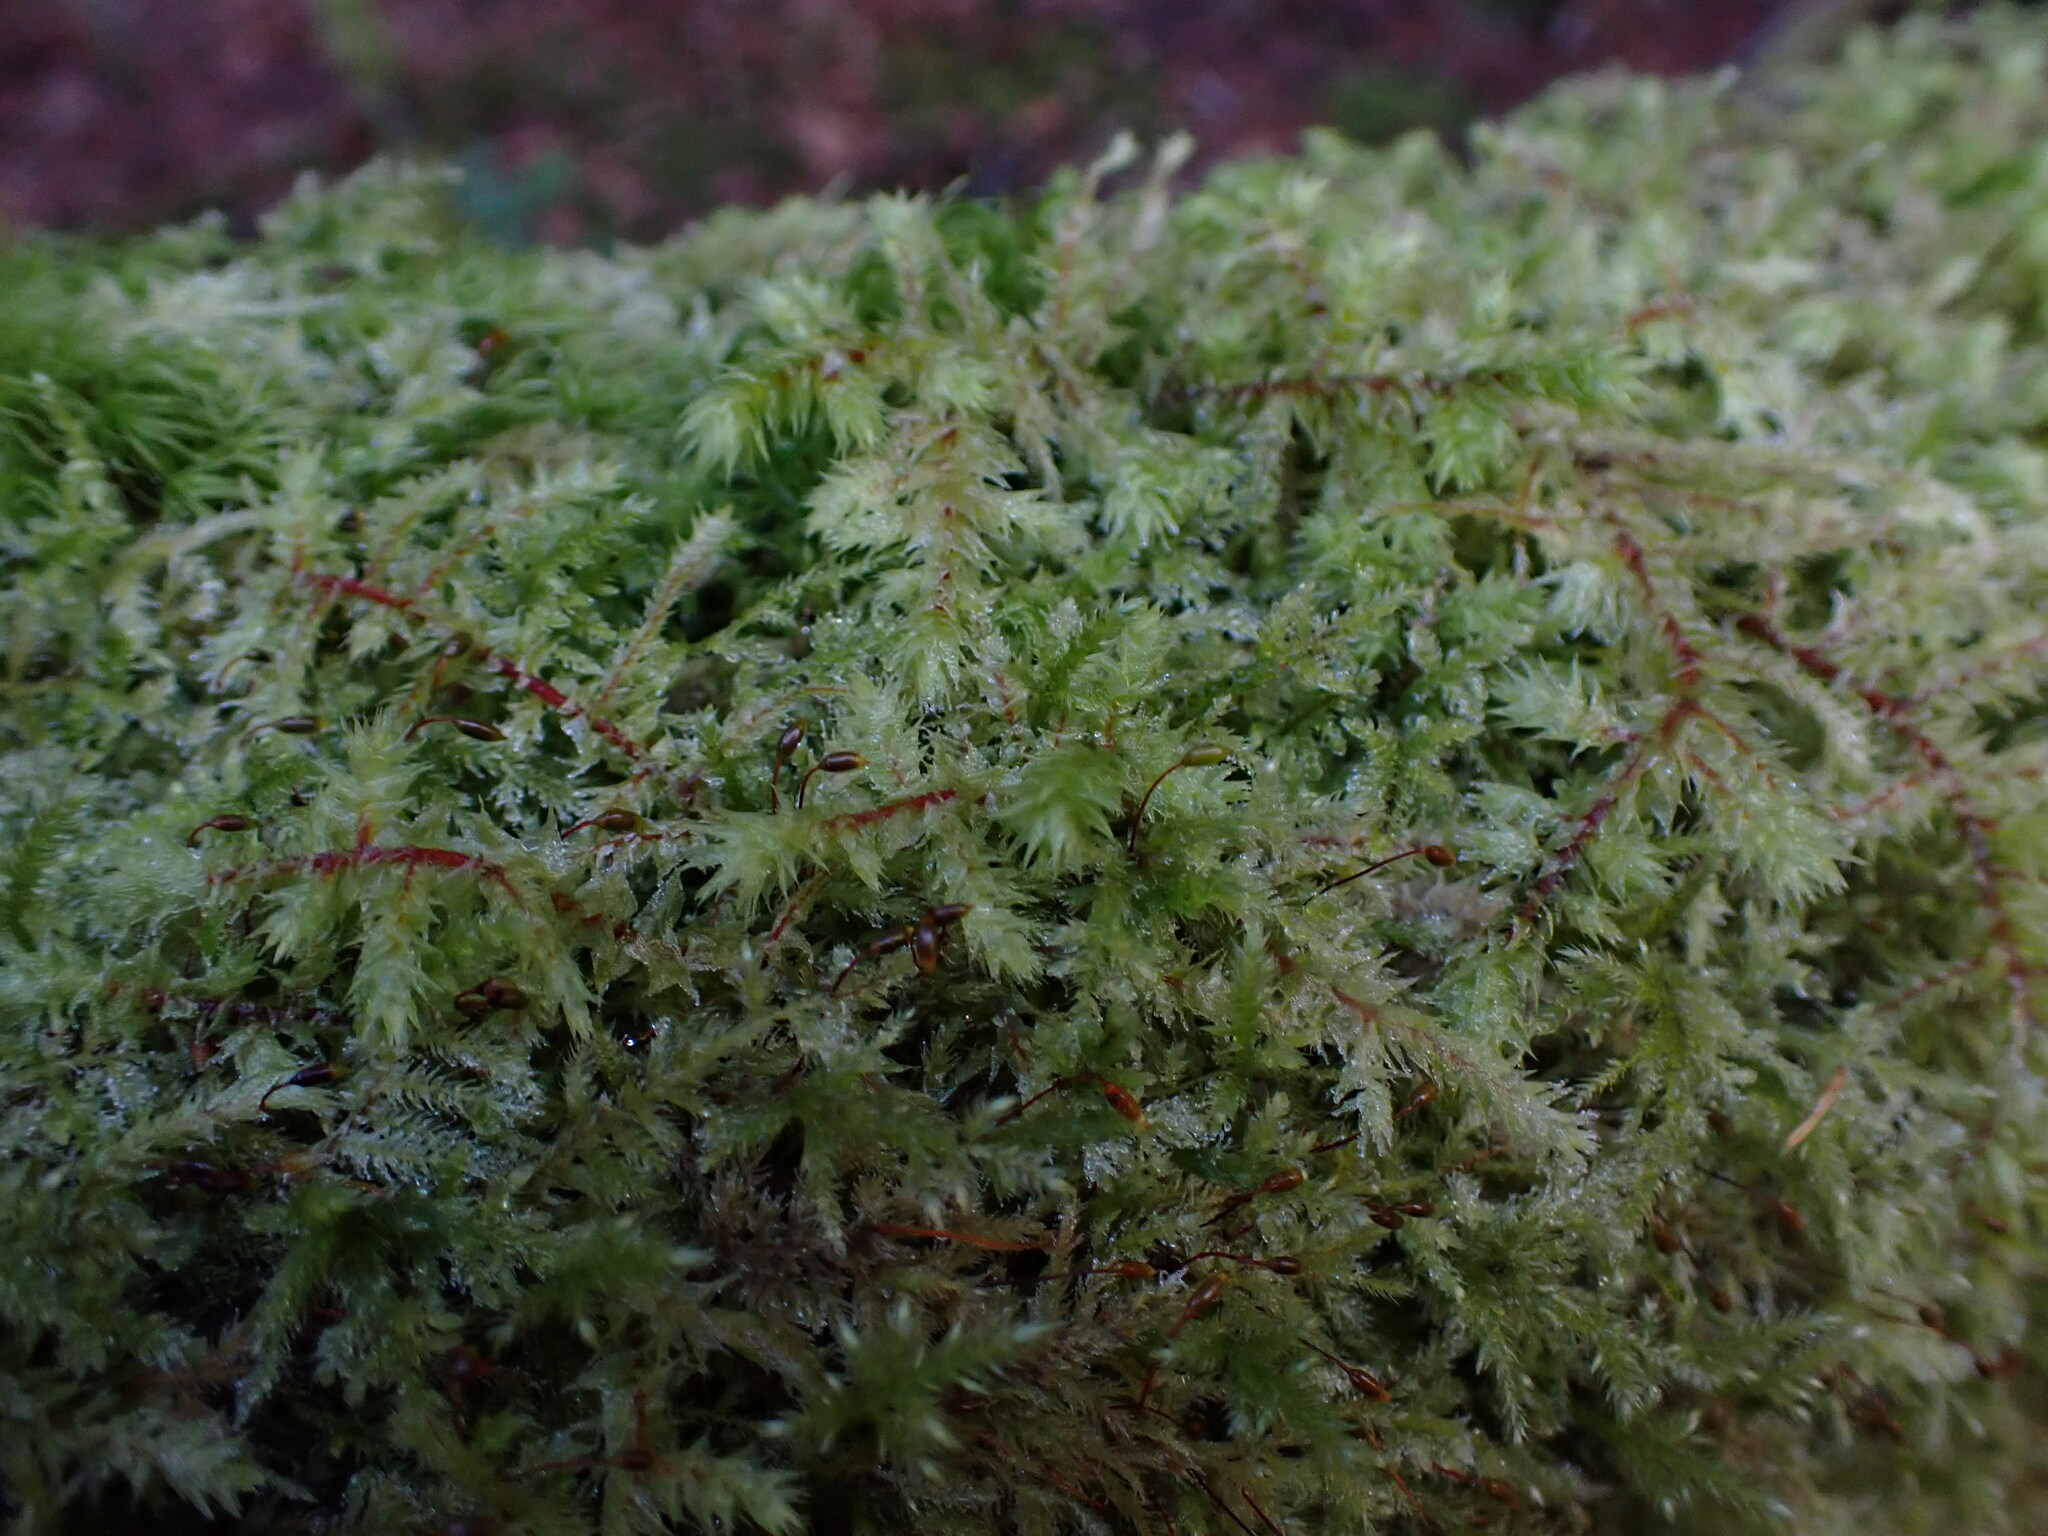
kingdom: Plantae
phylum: Bryophyta
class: Bryopsida
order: Hypnales
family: Hylocomiaceae
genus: Hylocomiadelphus
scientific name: Hylocomiadelphus triquetrus
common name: Rough goose neck moss
